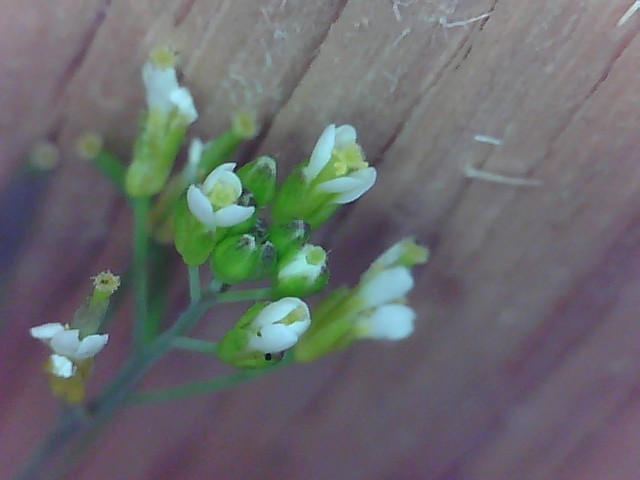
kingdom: Plantae
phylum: Tracheophyta
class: Magnoliopsida
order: Brassicales
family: Brassicaceae
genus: Arabidopsis
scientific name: Arabidopsis thaliana
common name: Thale cress
